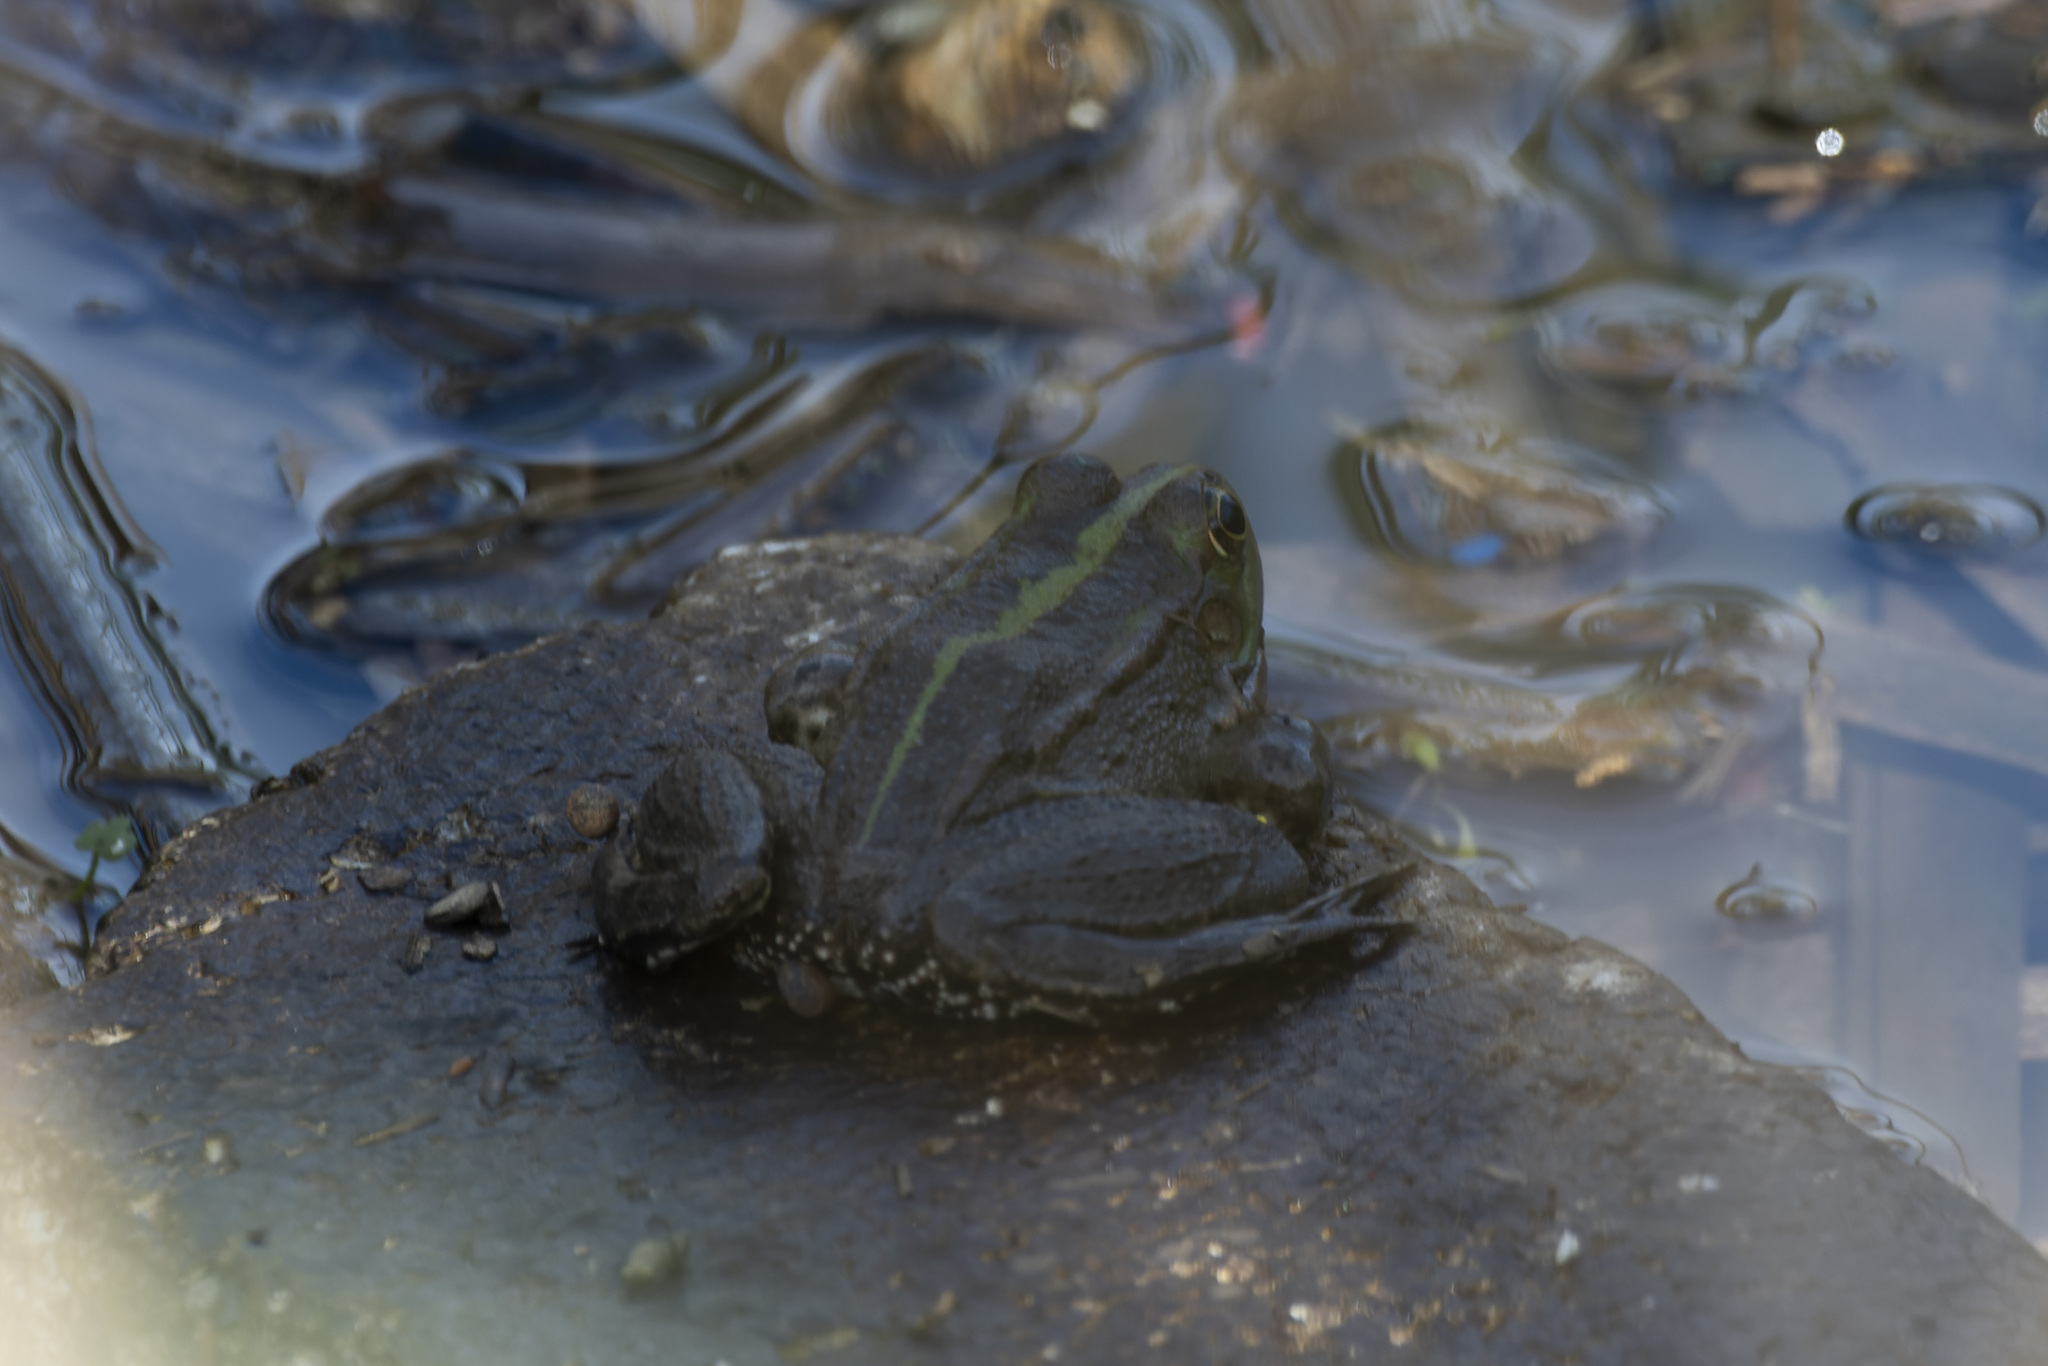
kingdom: Animalia
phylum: Chordata
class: Amphibia
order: Anura
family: Ranidae
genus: Pelophylax
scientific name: Pelophylax ridibundus
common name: Marsh frog
